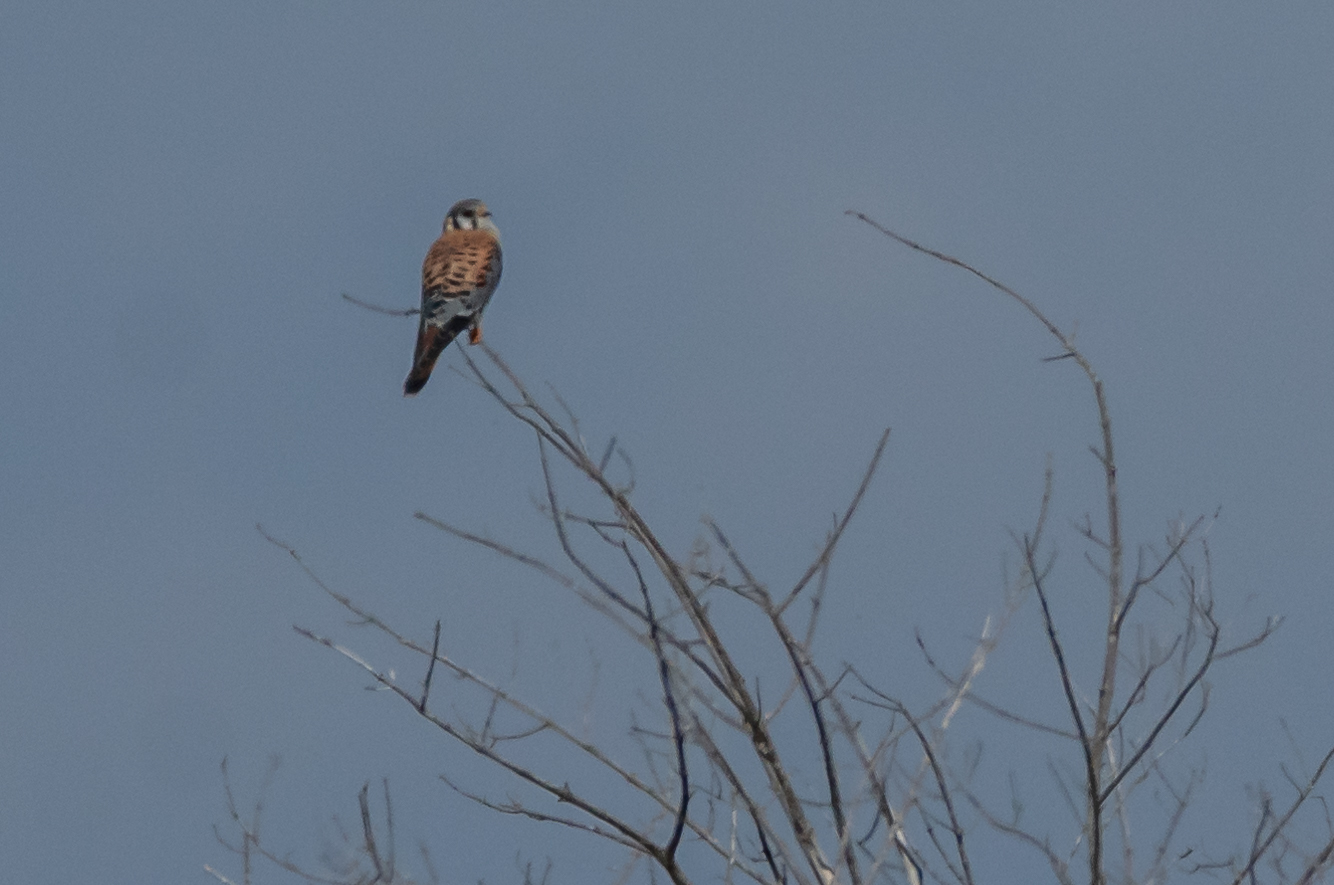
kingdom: Animalia
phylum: Chordata
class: Aves
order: Falconiformes
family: Falconidae
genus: Falco
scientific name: Falco sparverius
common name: American kestrel
